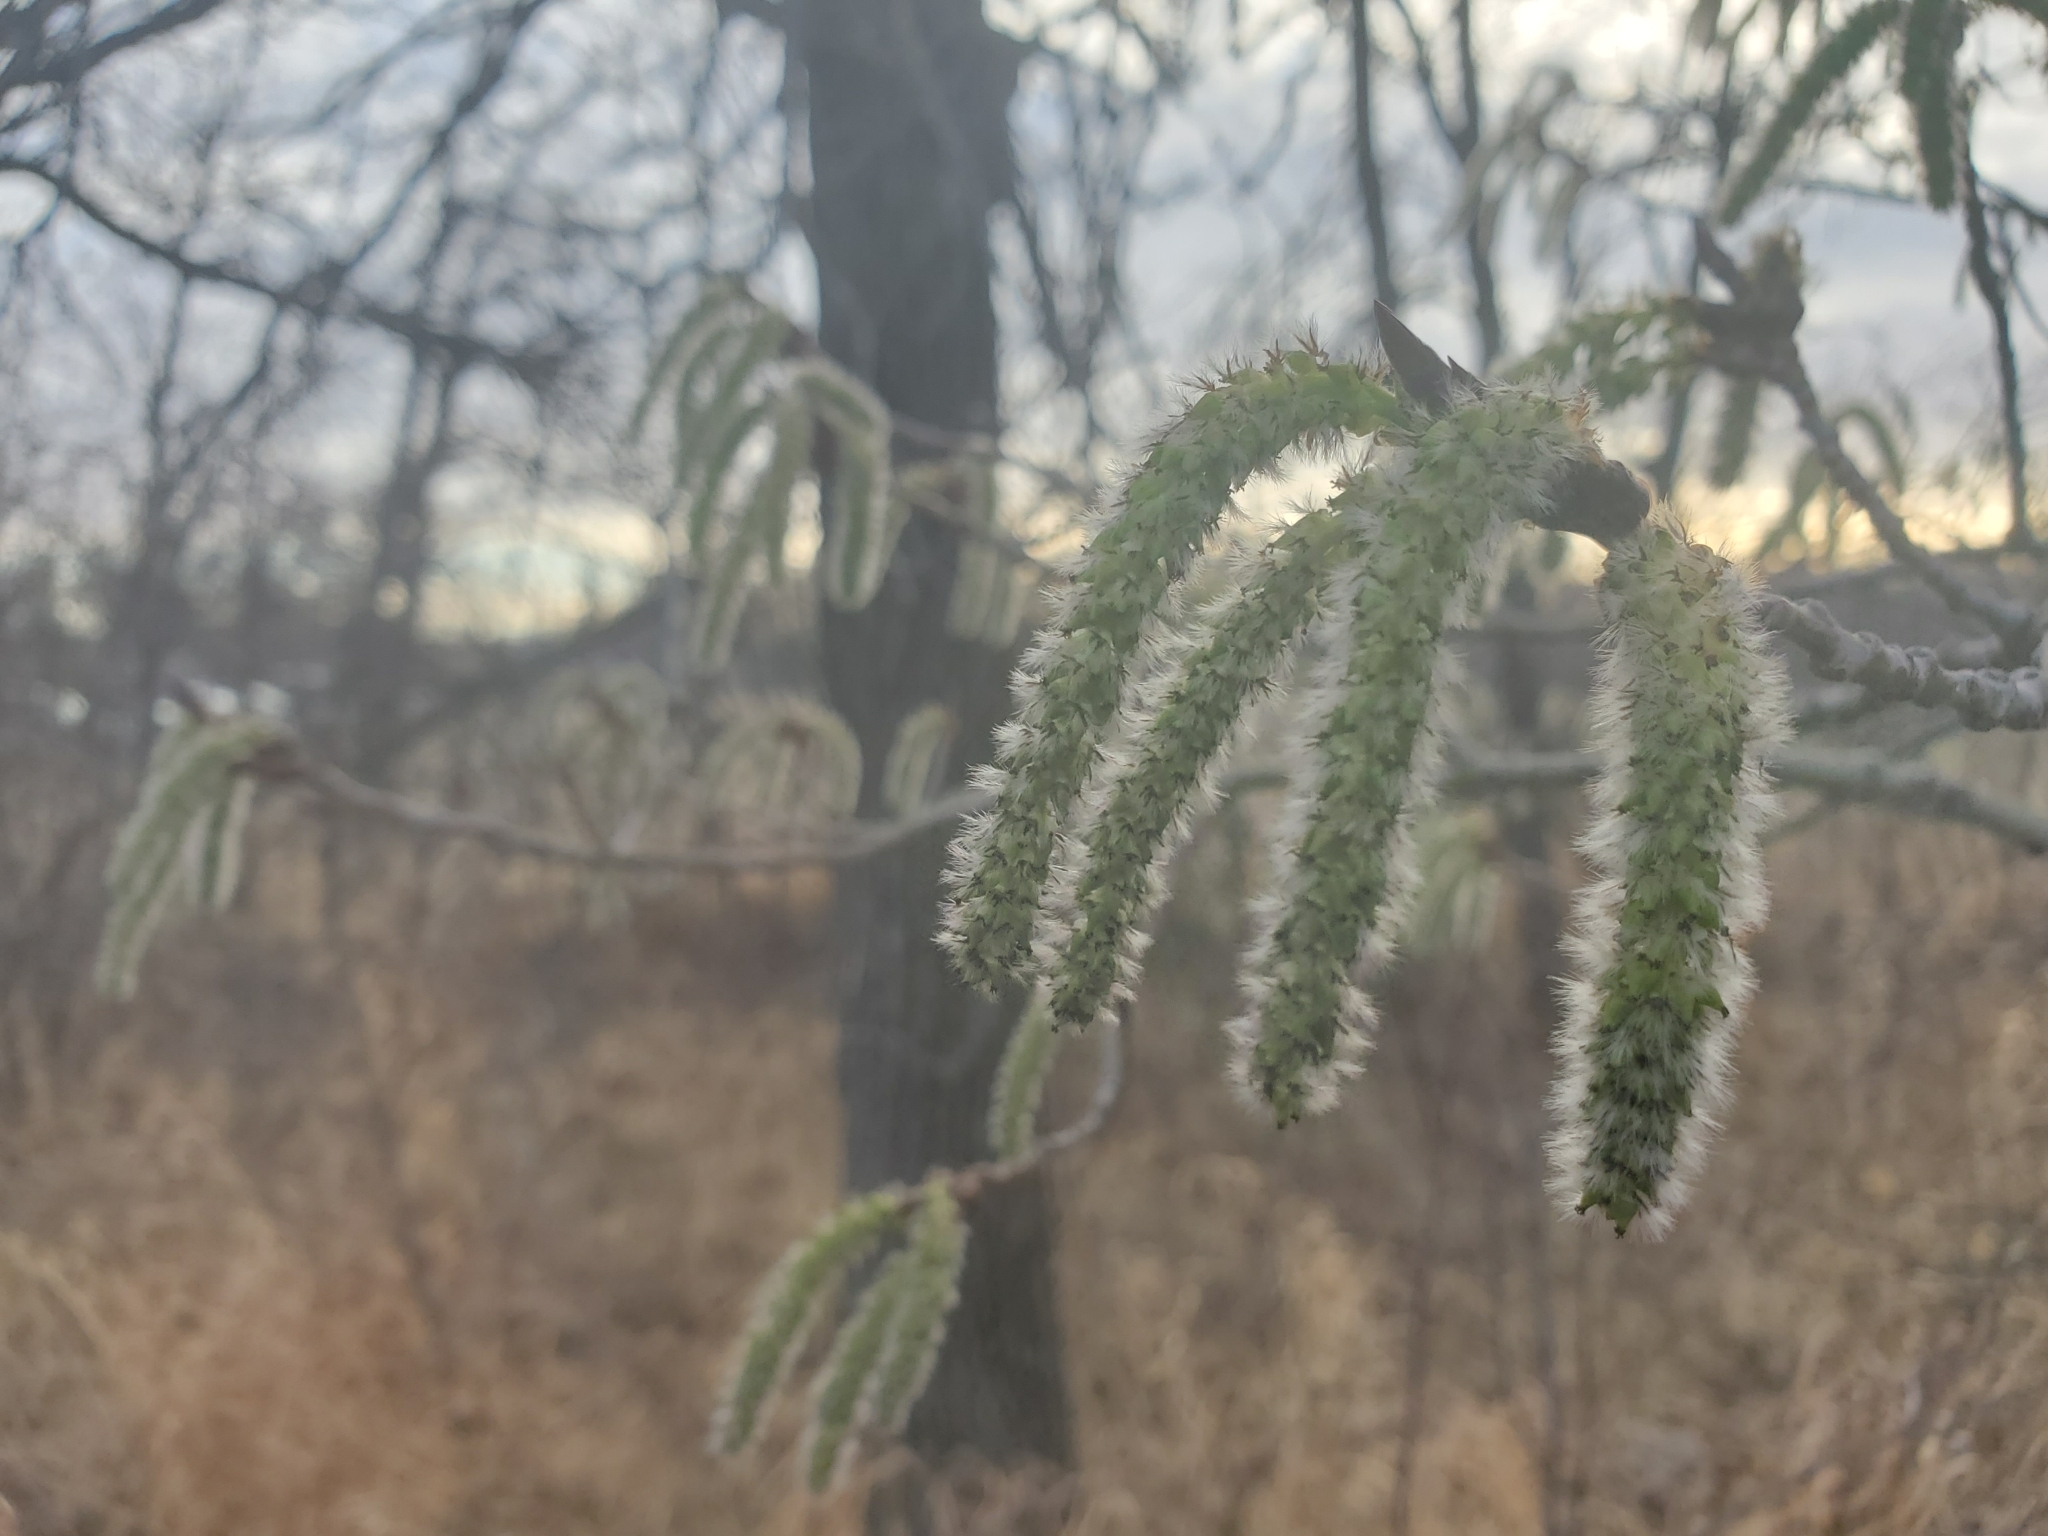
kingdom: Plantae
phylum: Tracheophyta
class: Magnoliopsida
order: Malpighiales
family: Salicaceae
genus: Populus
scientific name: Populus tremuloides
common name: Quaking aspen
